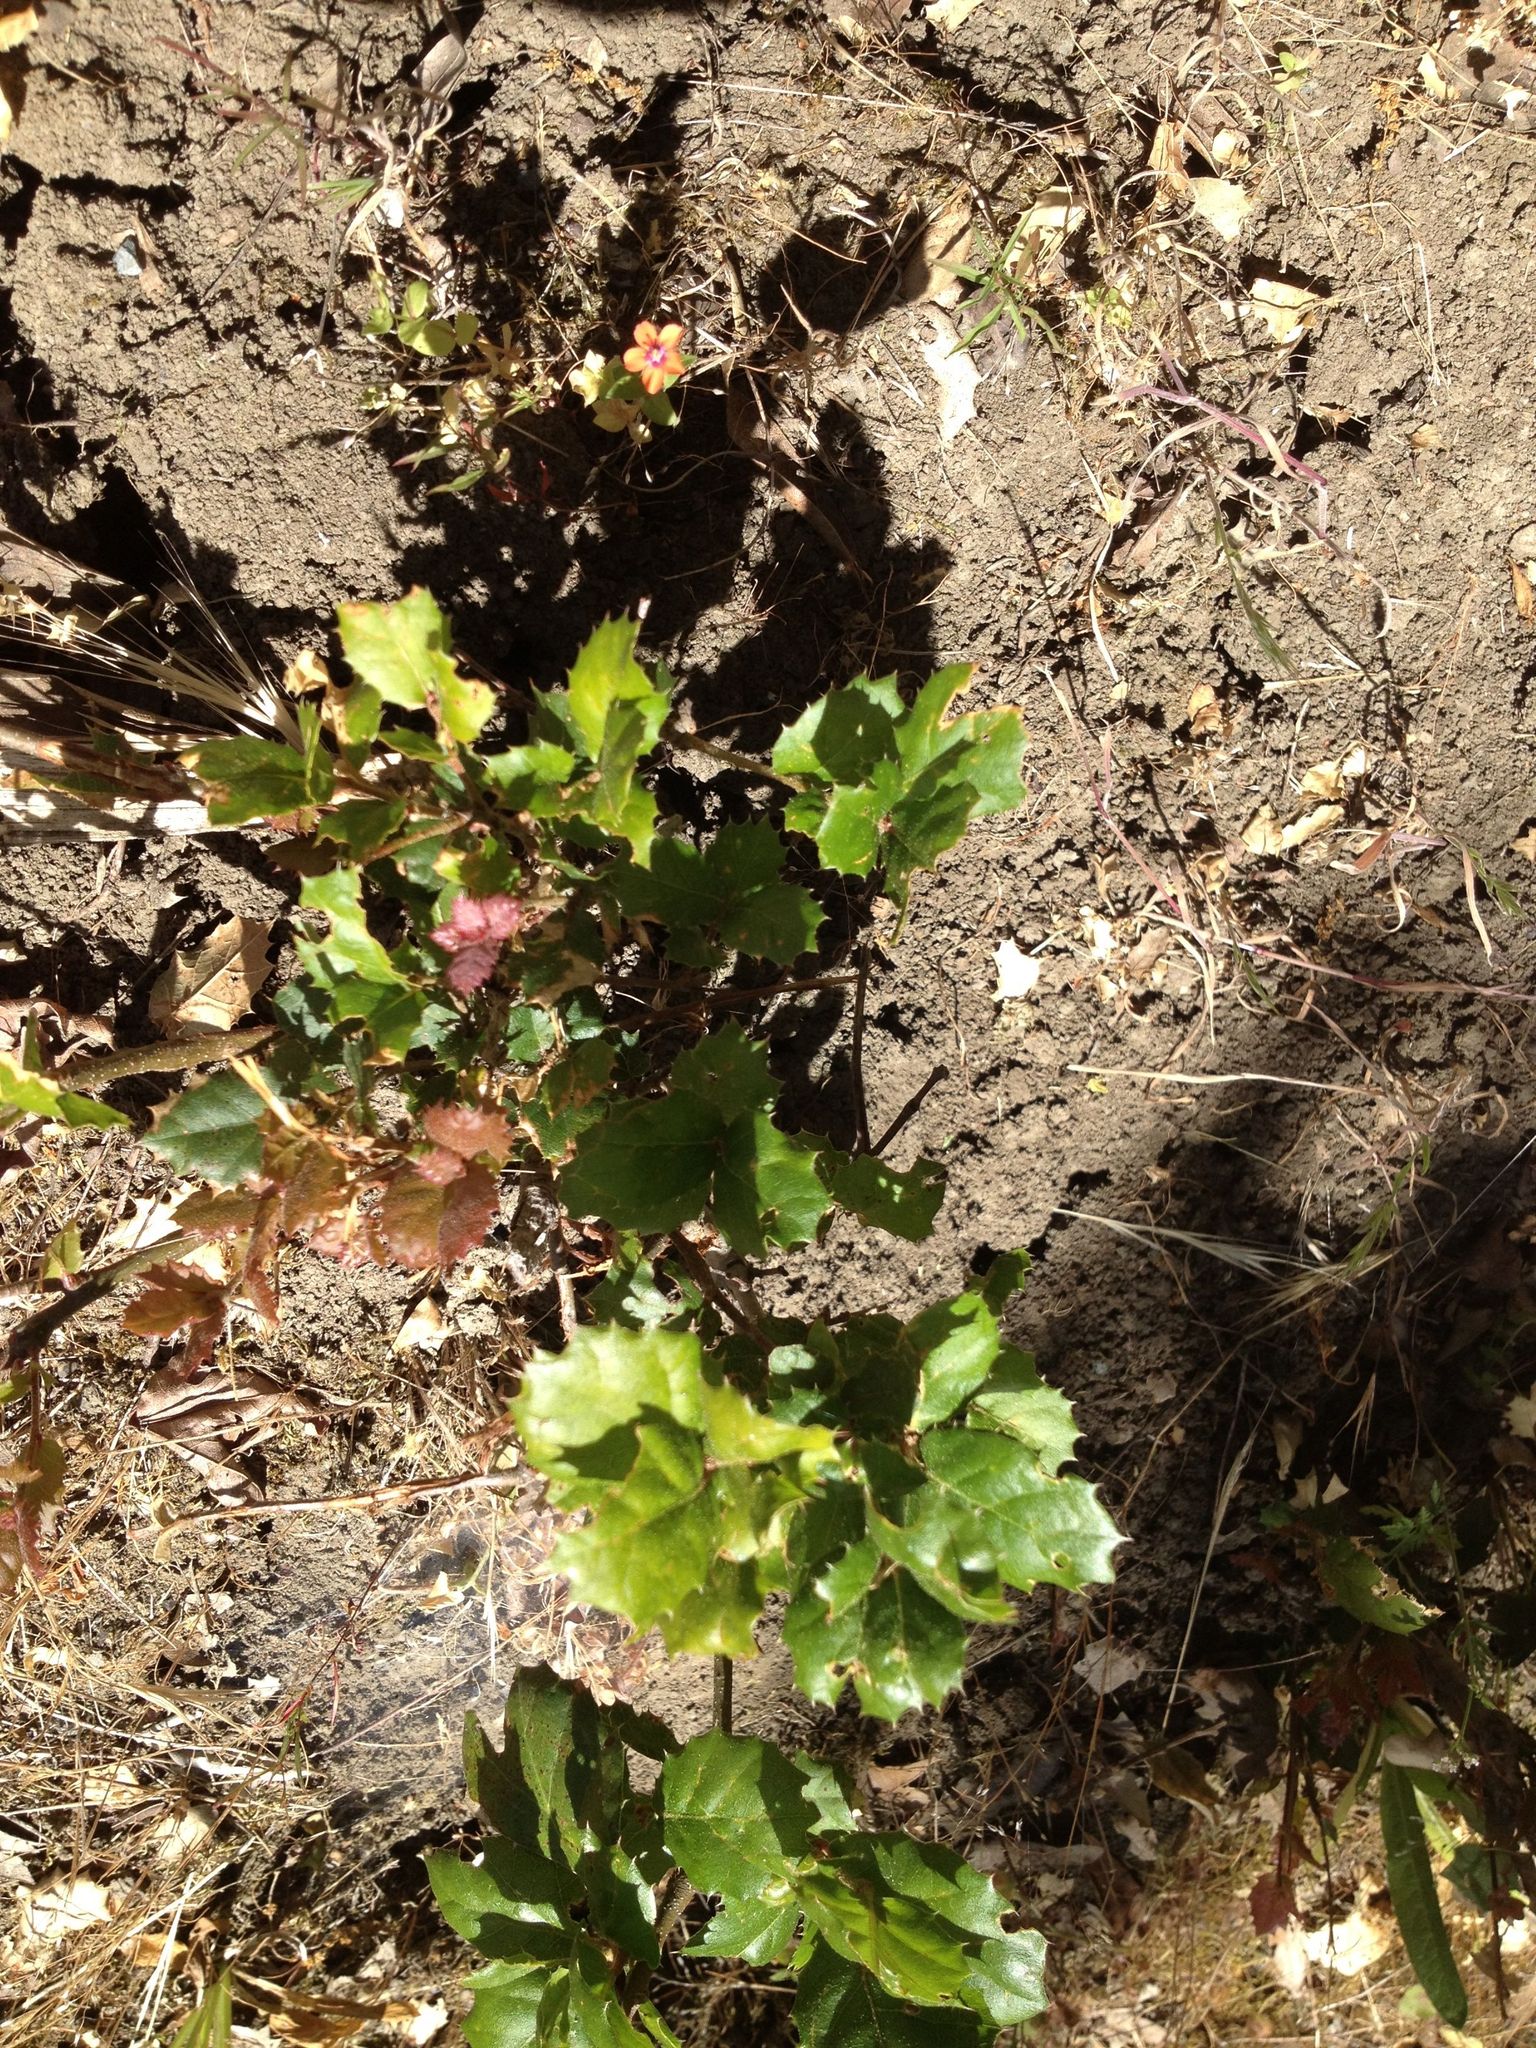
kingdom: Plantae
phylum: Tracheophyta
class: Magnoliopsida
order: Fagales
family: Fagaceae
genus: Quercus
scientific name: Quercus agrifolia
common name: California live oak
